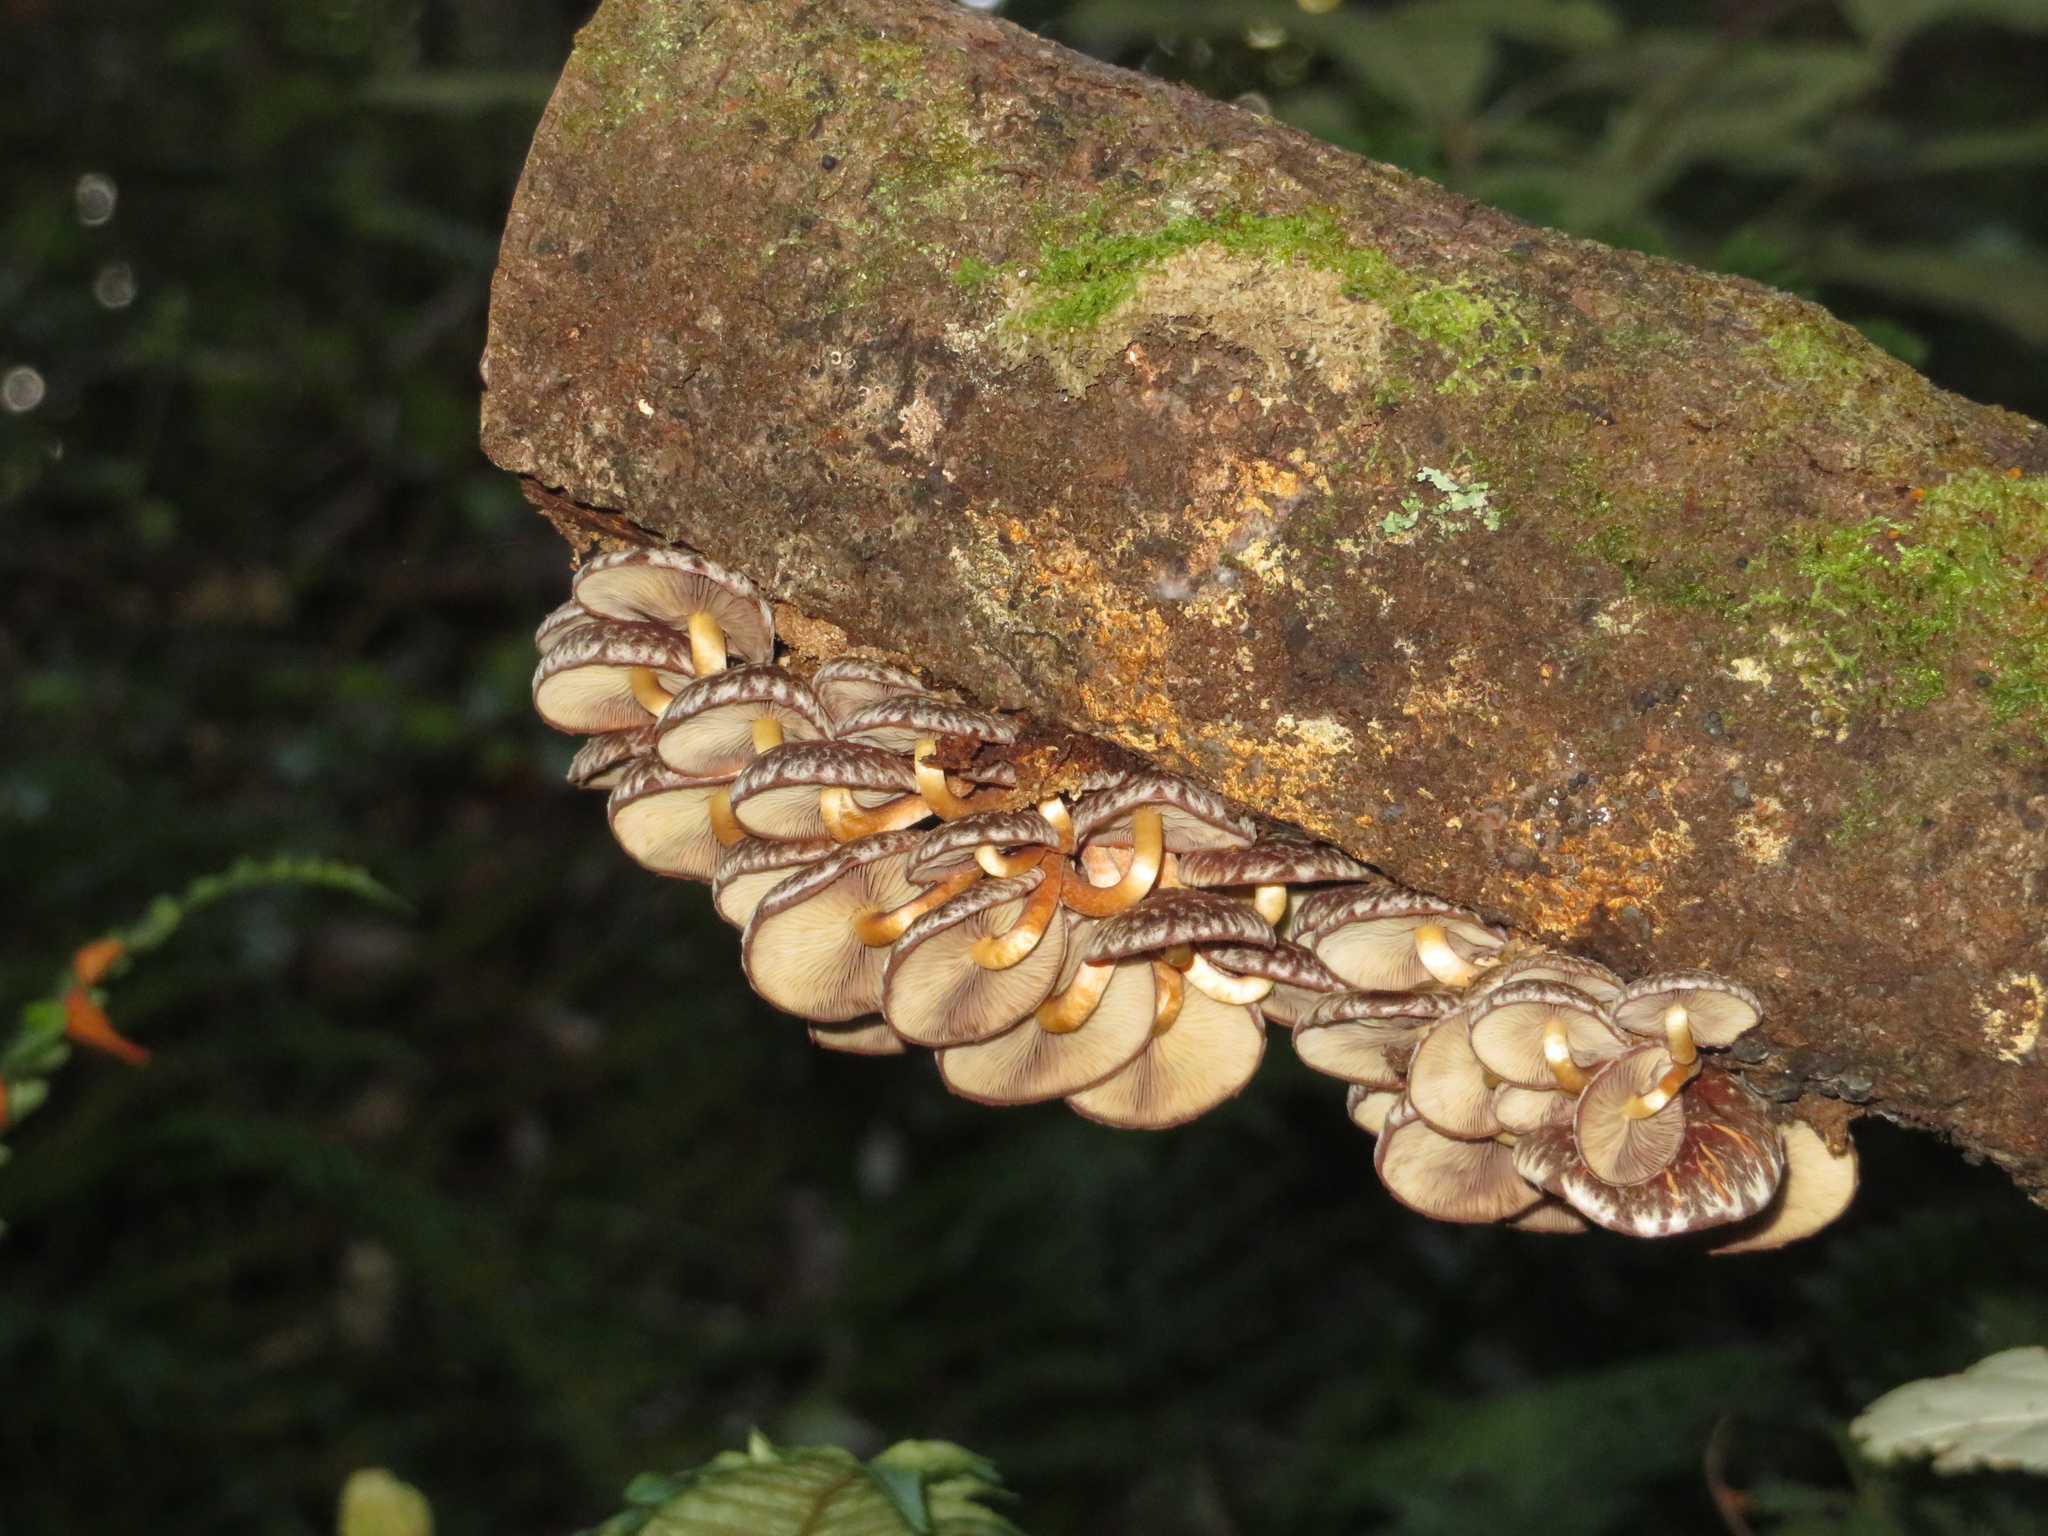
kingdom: Fungi
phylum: Basidiomycota
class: Agaricomycetes
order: Agaricales
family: Strophariaceae
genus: Hypholoma
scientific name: Hypholoma brunneum
